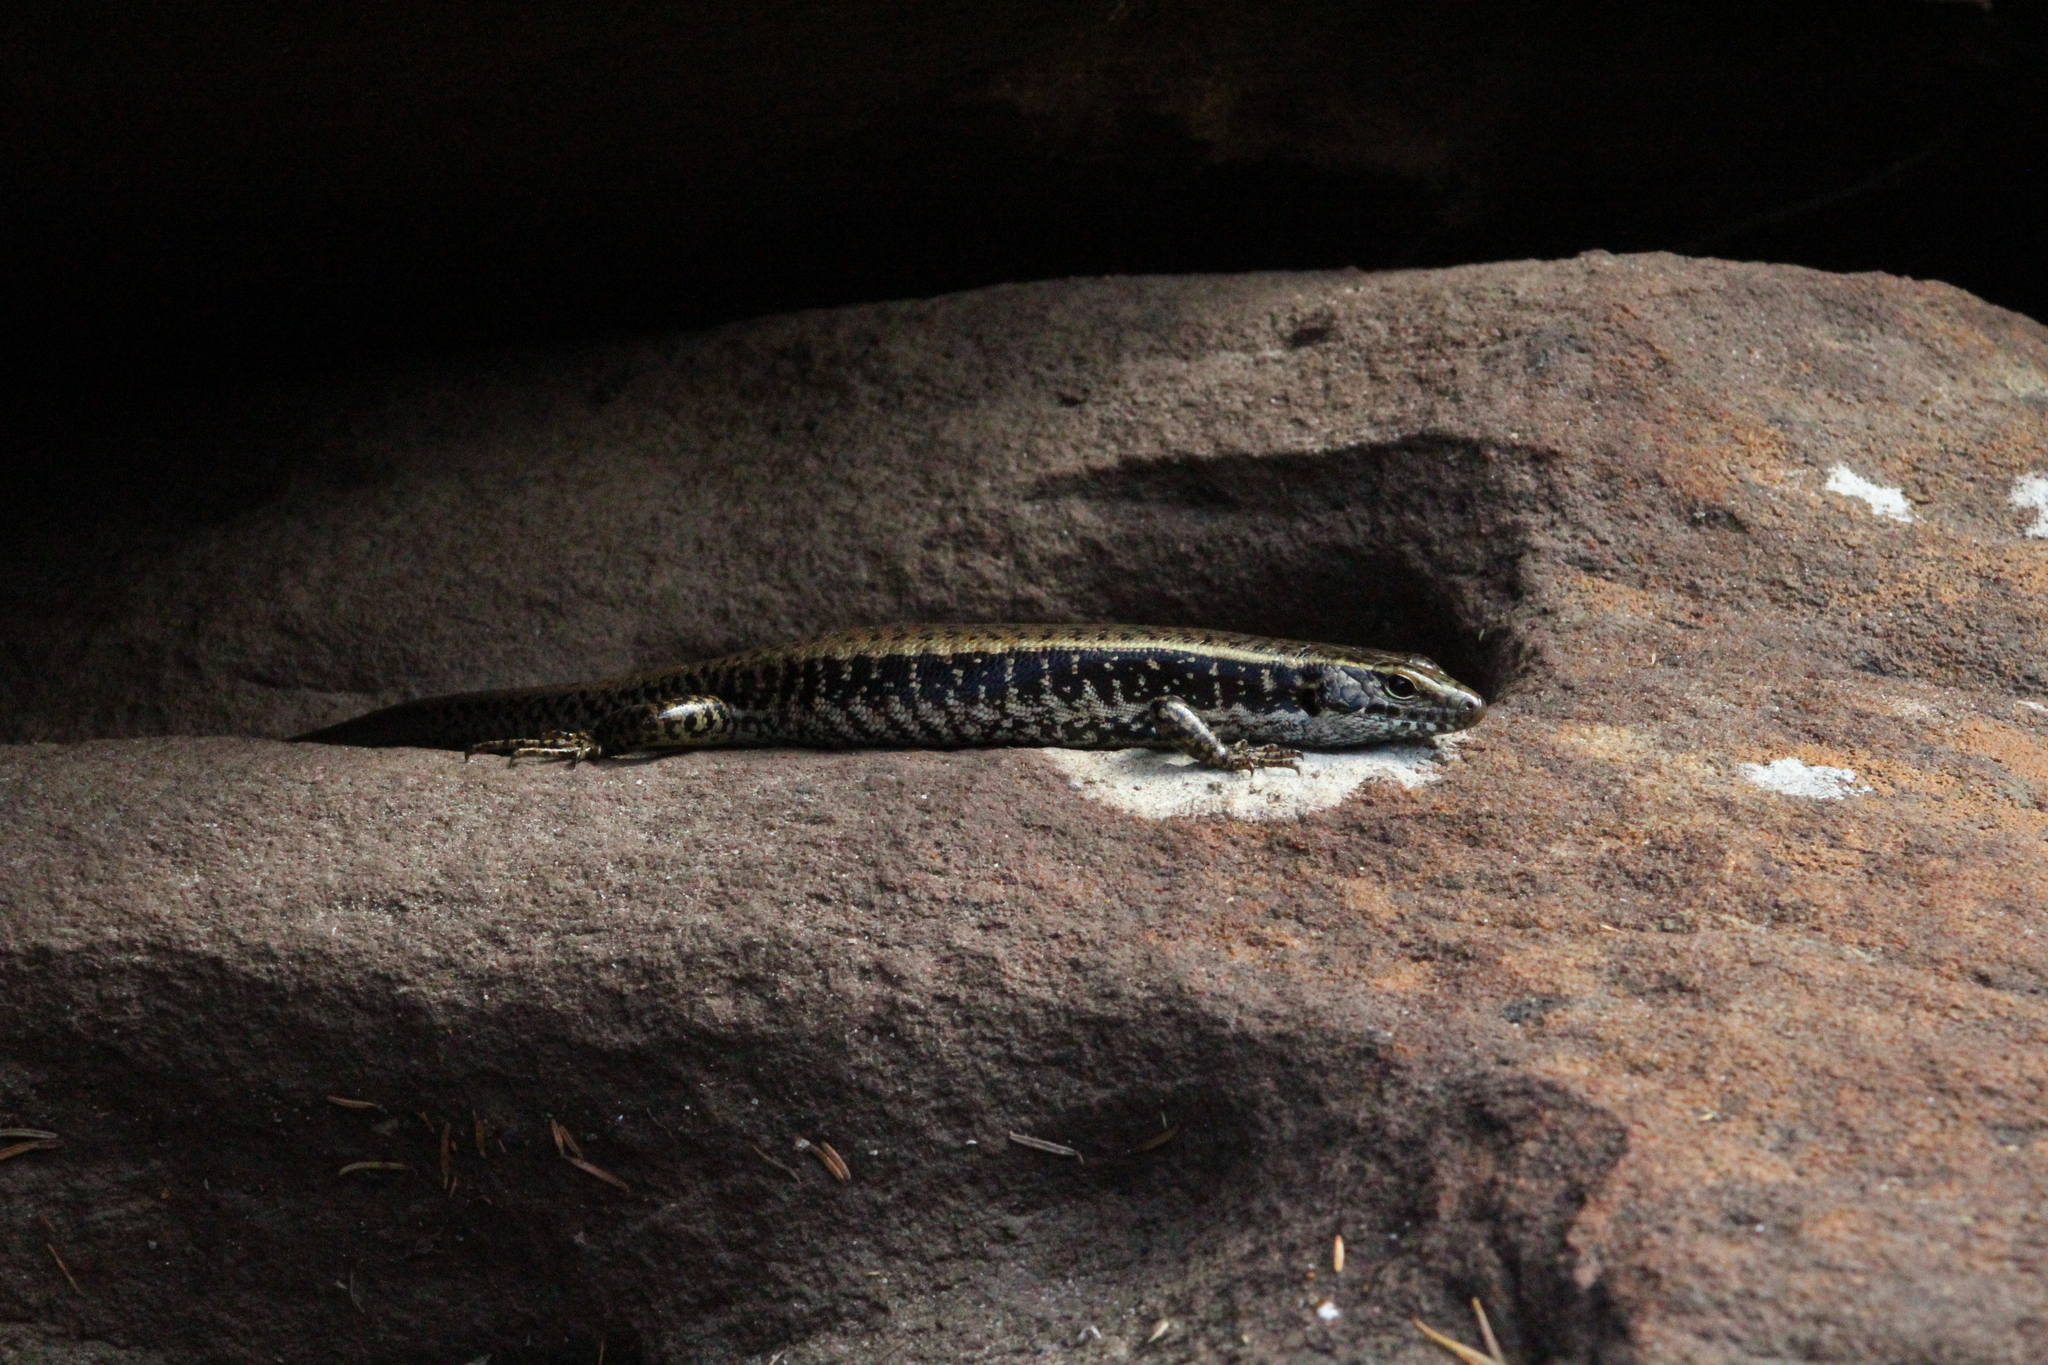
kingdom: Animalia
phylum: Chordata
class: Squamata
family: Scincidae
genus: Eulamprus
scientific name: Eulamprus quoyii
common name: Eastern water skink
